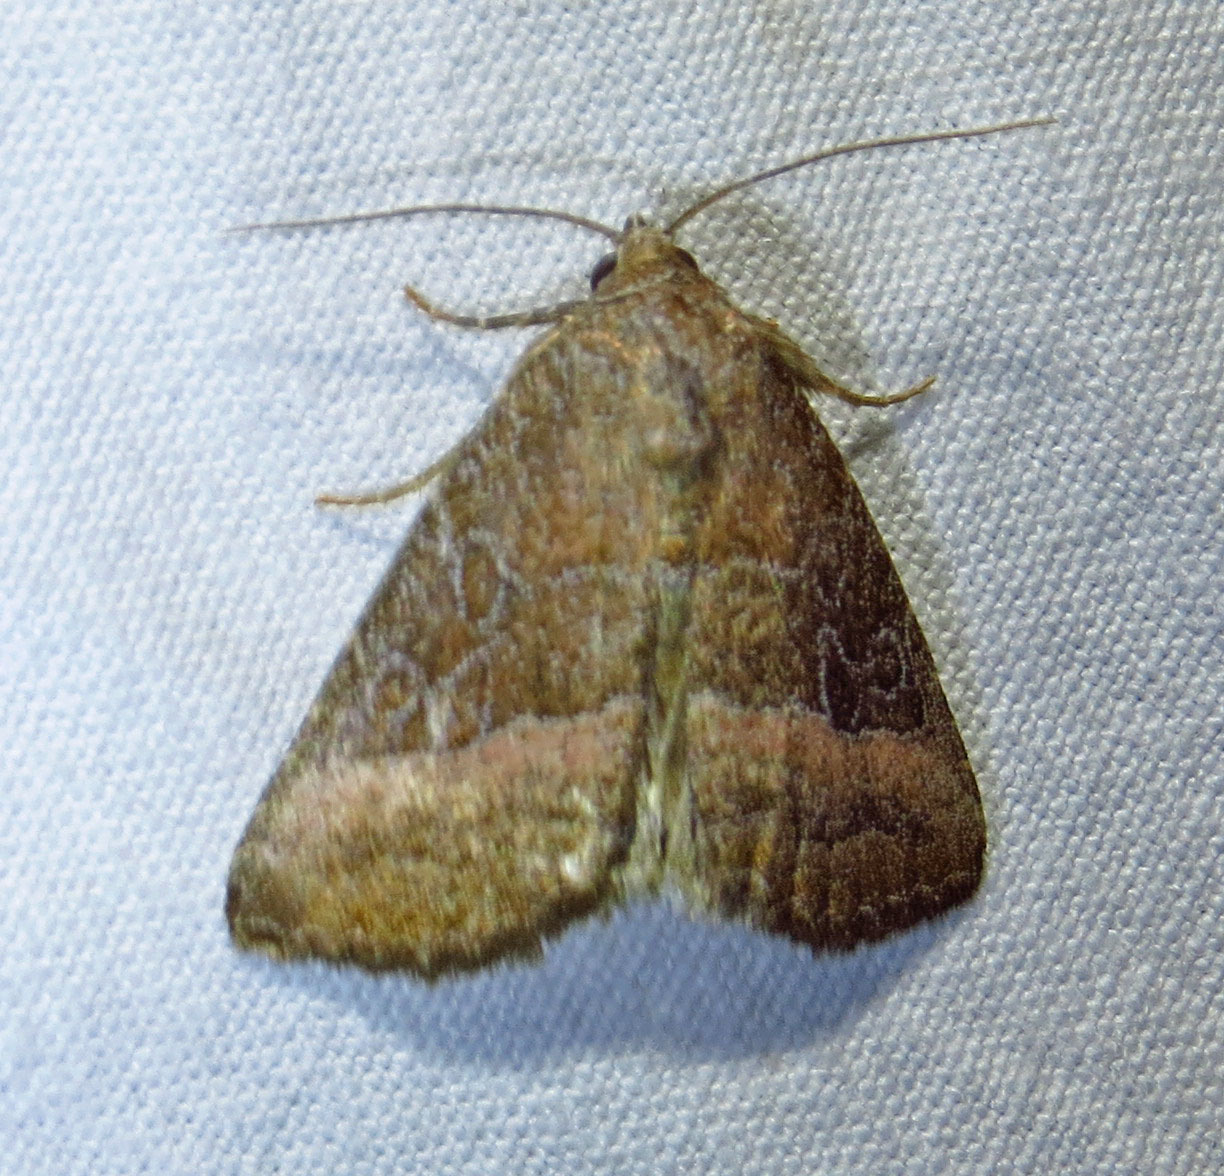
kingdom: Animalia
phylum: Arthropoda
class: Insecta
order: Lepidoptera
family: Noctuidae
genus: Ogdoconta
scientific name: Ogdoconta cinereola
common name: Common pinkband
